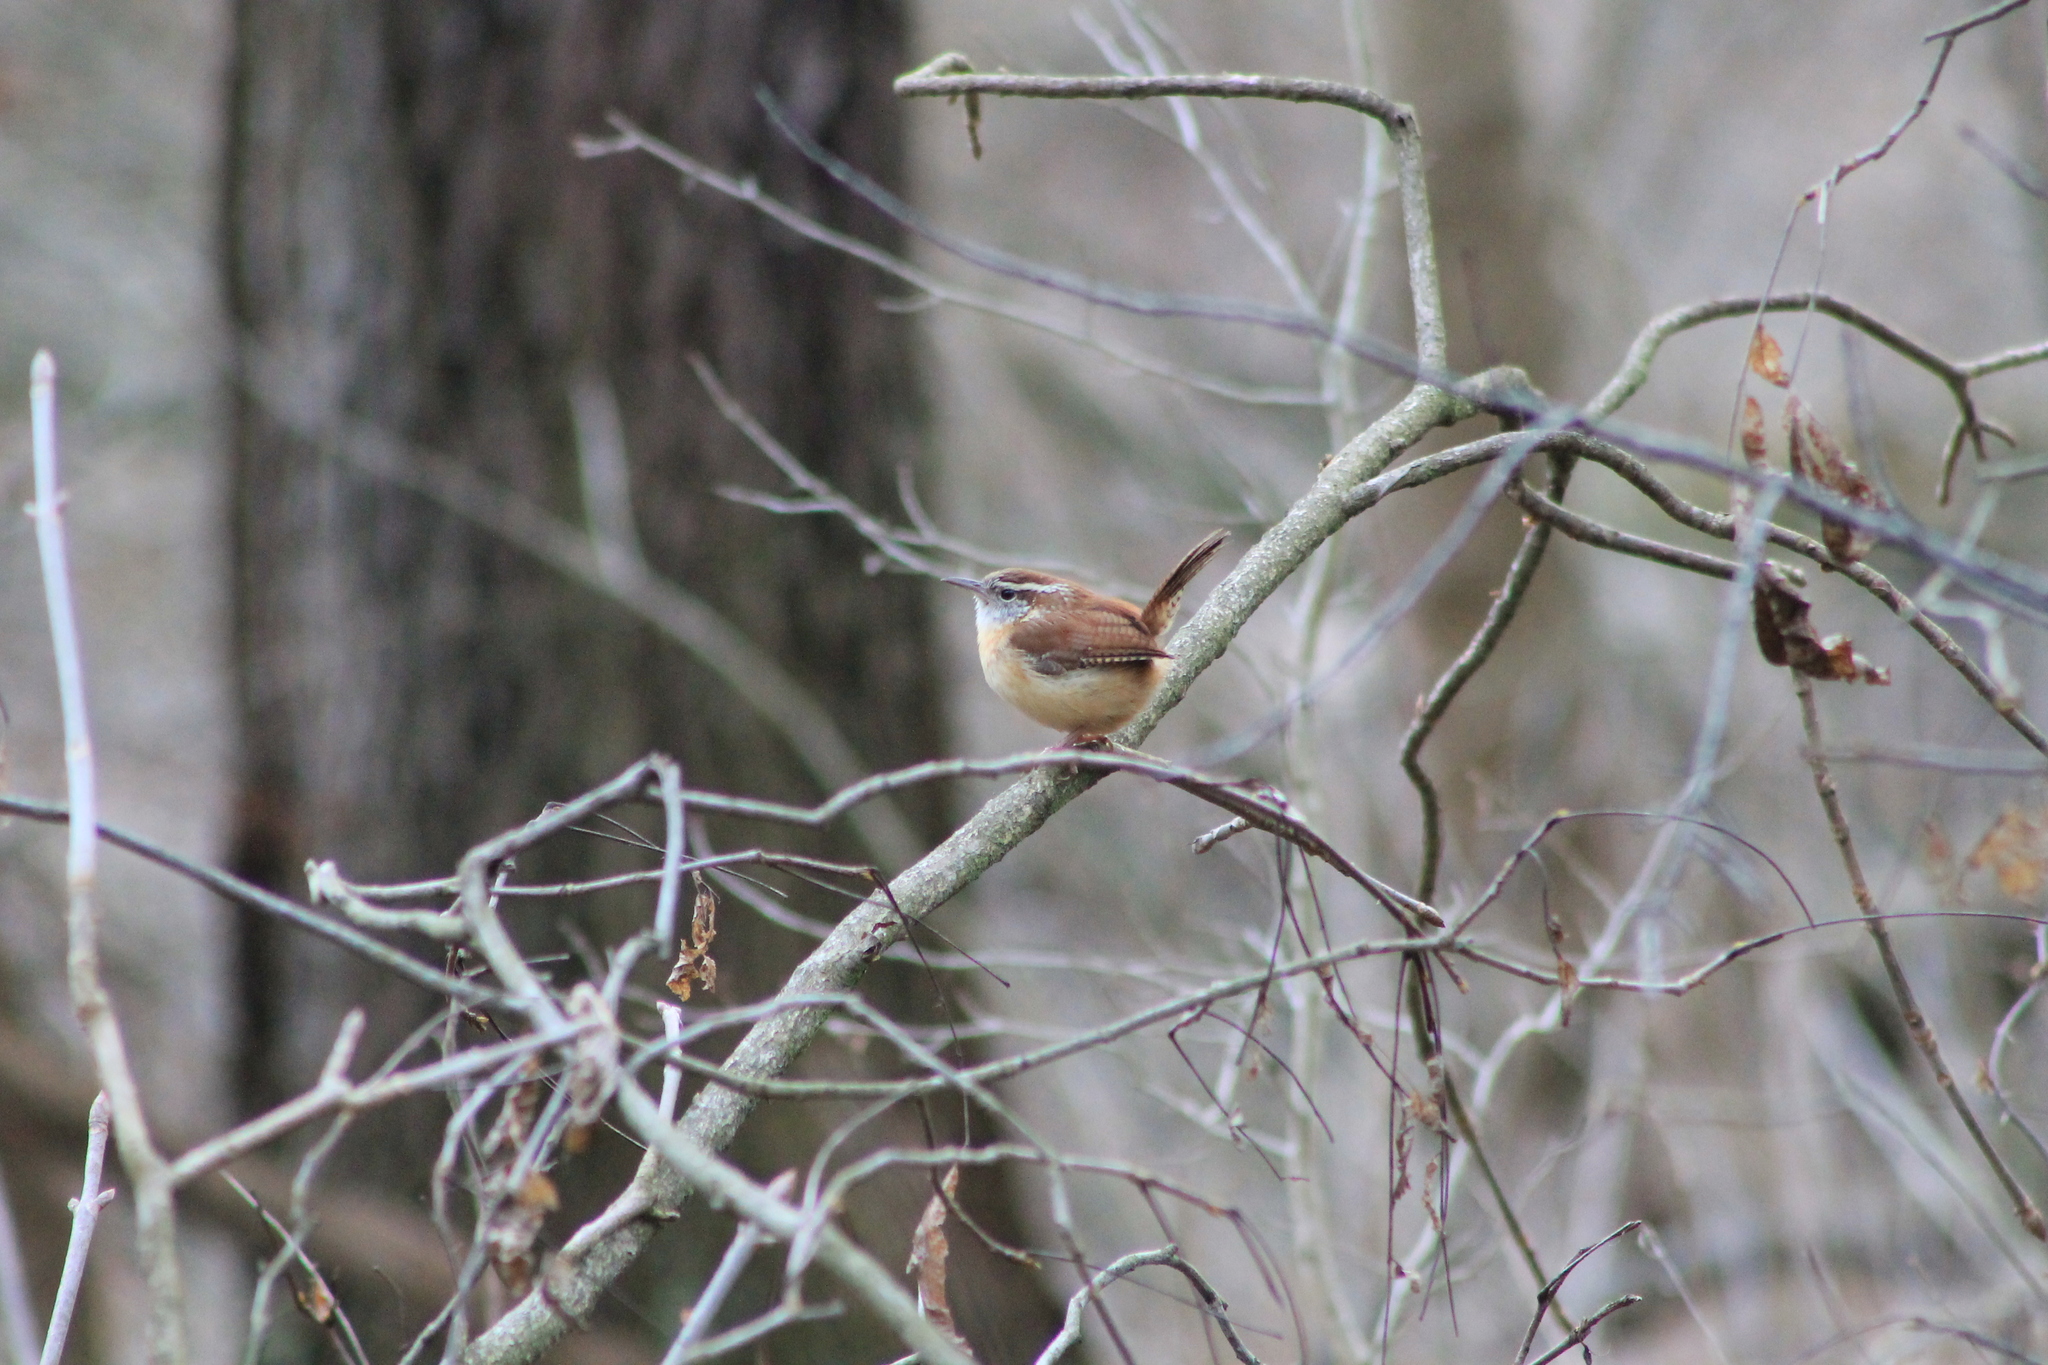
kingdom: Animalia
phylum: Chordata
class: Aves
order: Passeriformes
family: Troglodytidae
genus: Thryothorus
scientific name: Thryothorus ludovicianus
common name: Carolina wren
